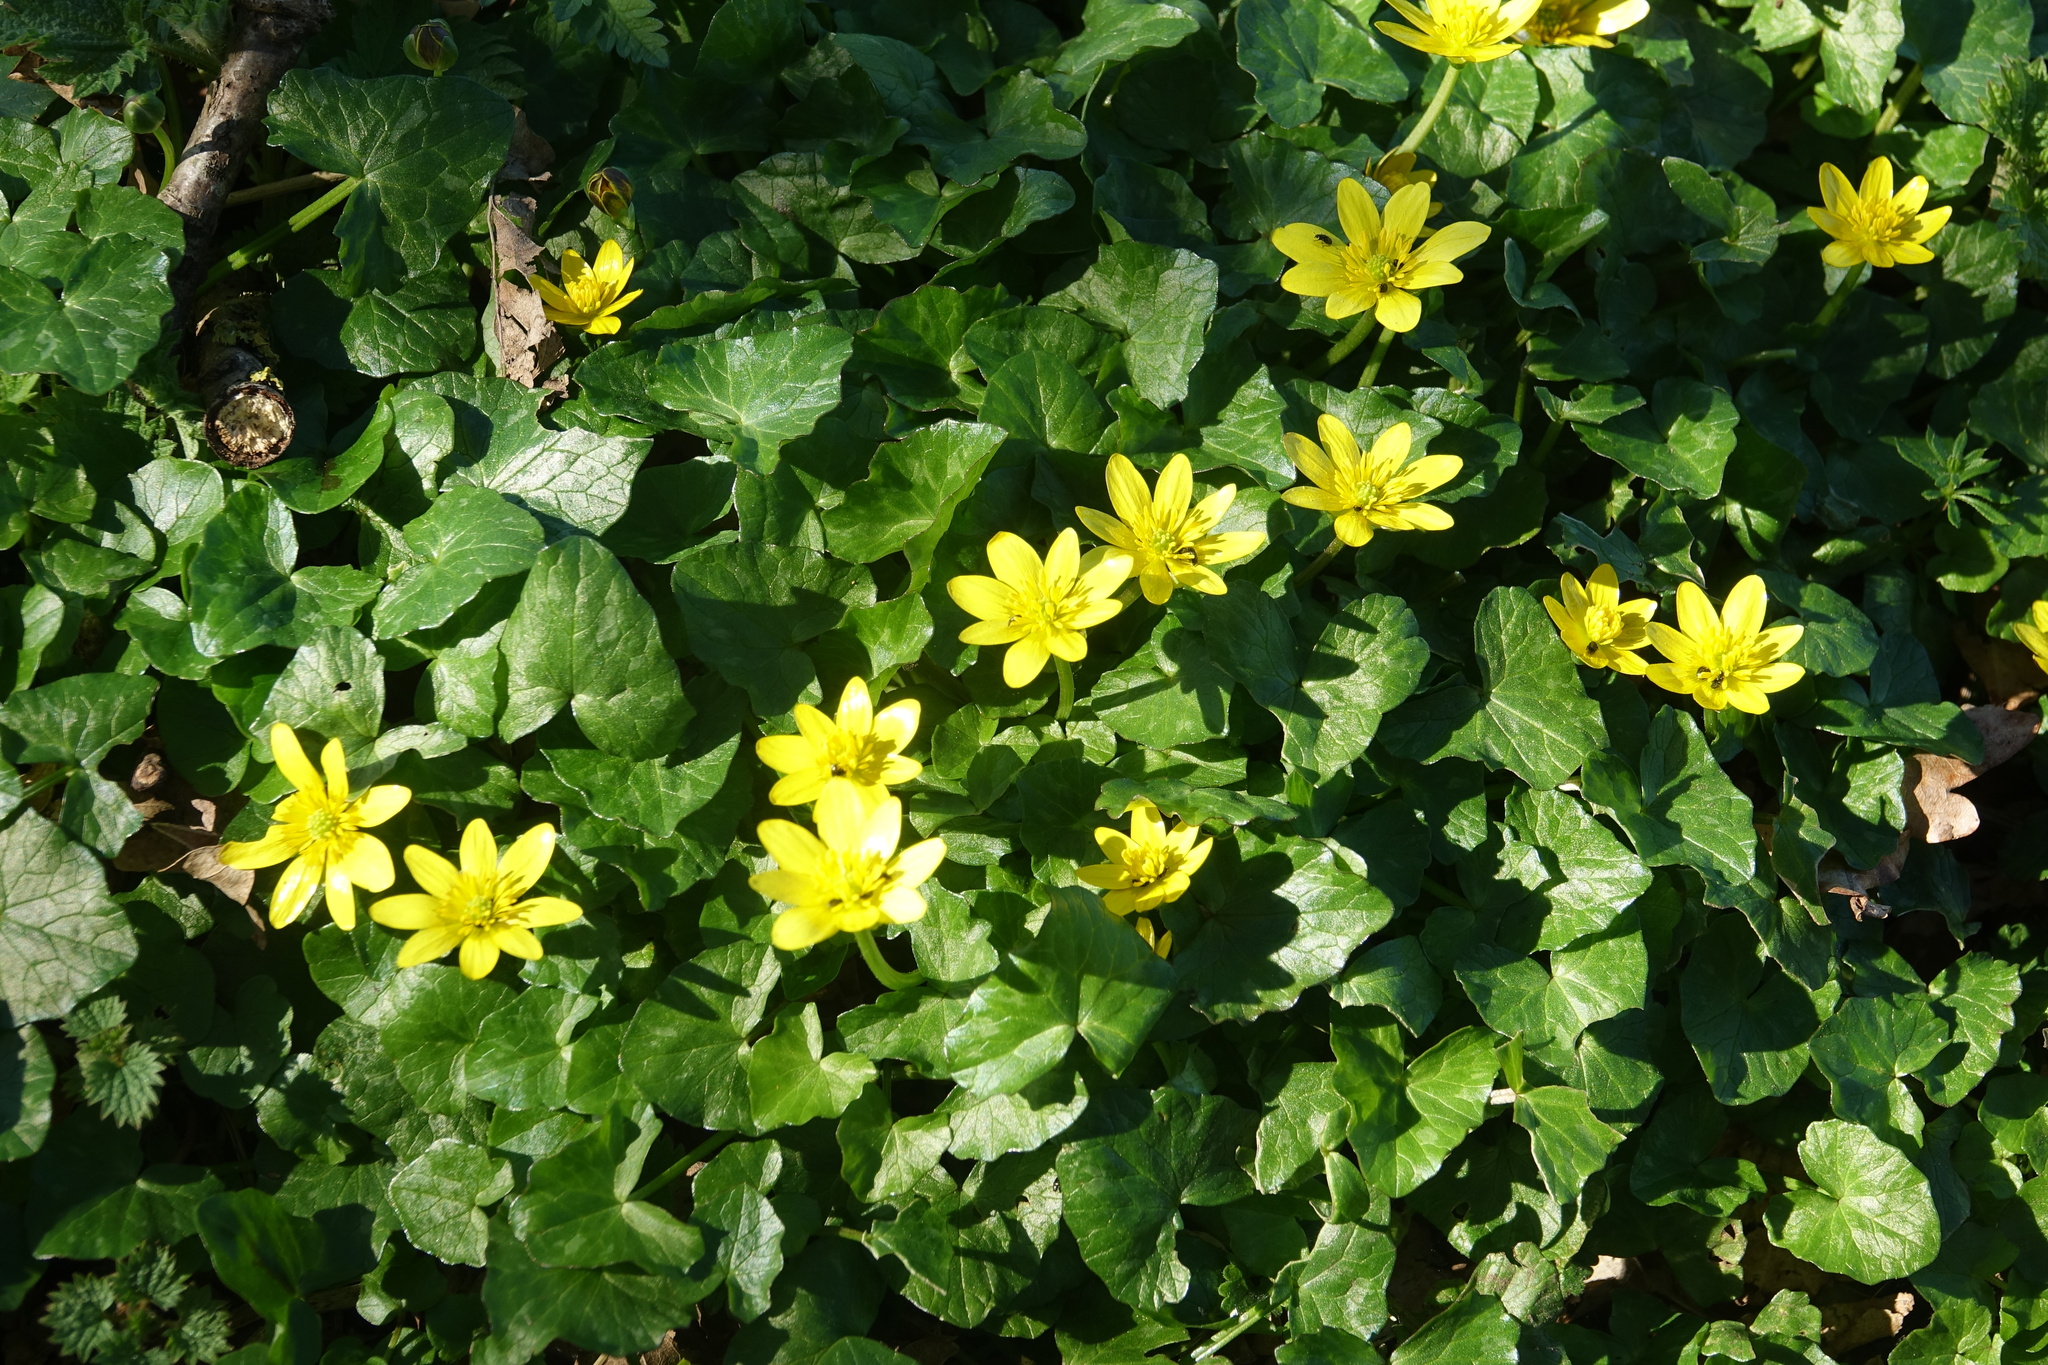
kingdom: Plantae
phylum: Tracheophyta
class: Magnoliopsida
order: Ranunculales
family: Ranunculaceae
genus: Ficaria
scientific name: Ficaria verna
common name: Lesser celandine
